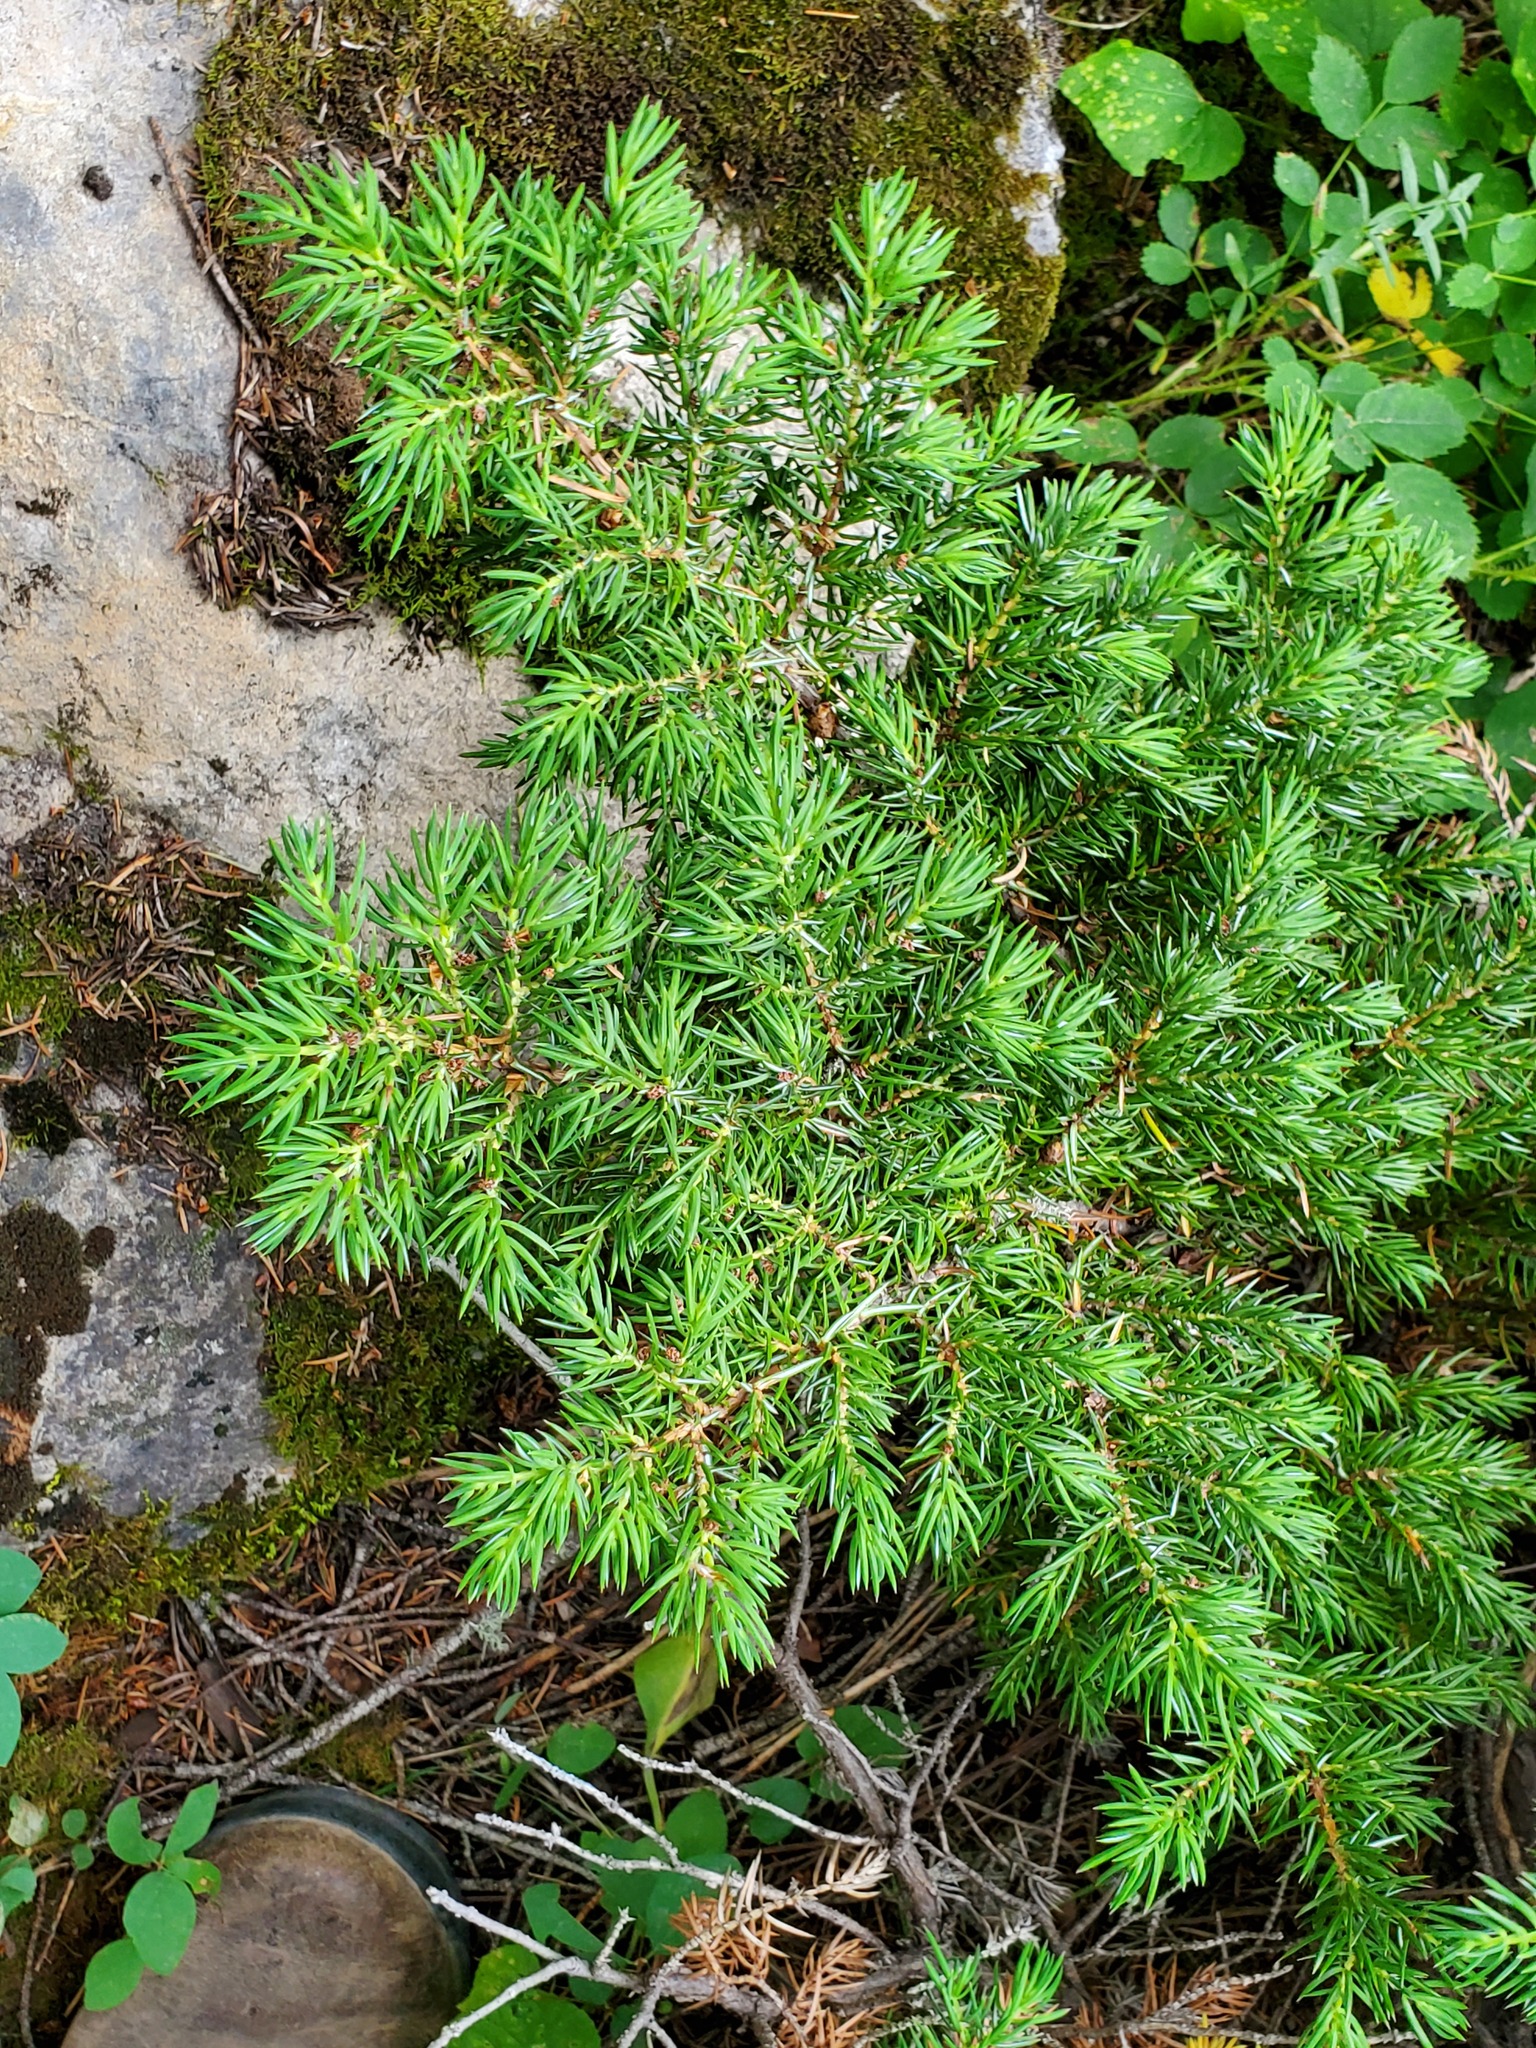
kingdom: Plantae
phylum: Tracheophyta
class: Pinopsida
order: Pinales
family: Cupressaceae
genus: Juniperus
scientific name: Juniperus communis
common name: Common juniper
